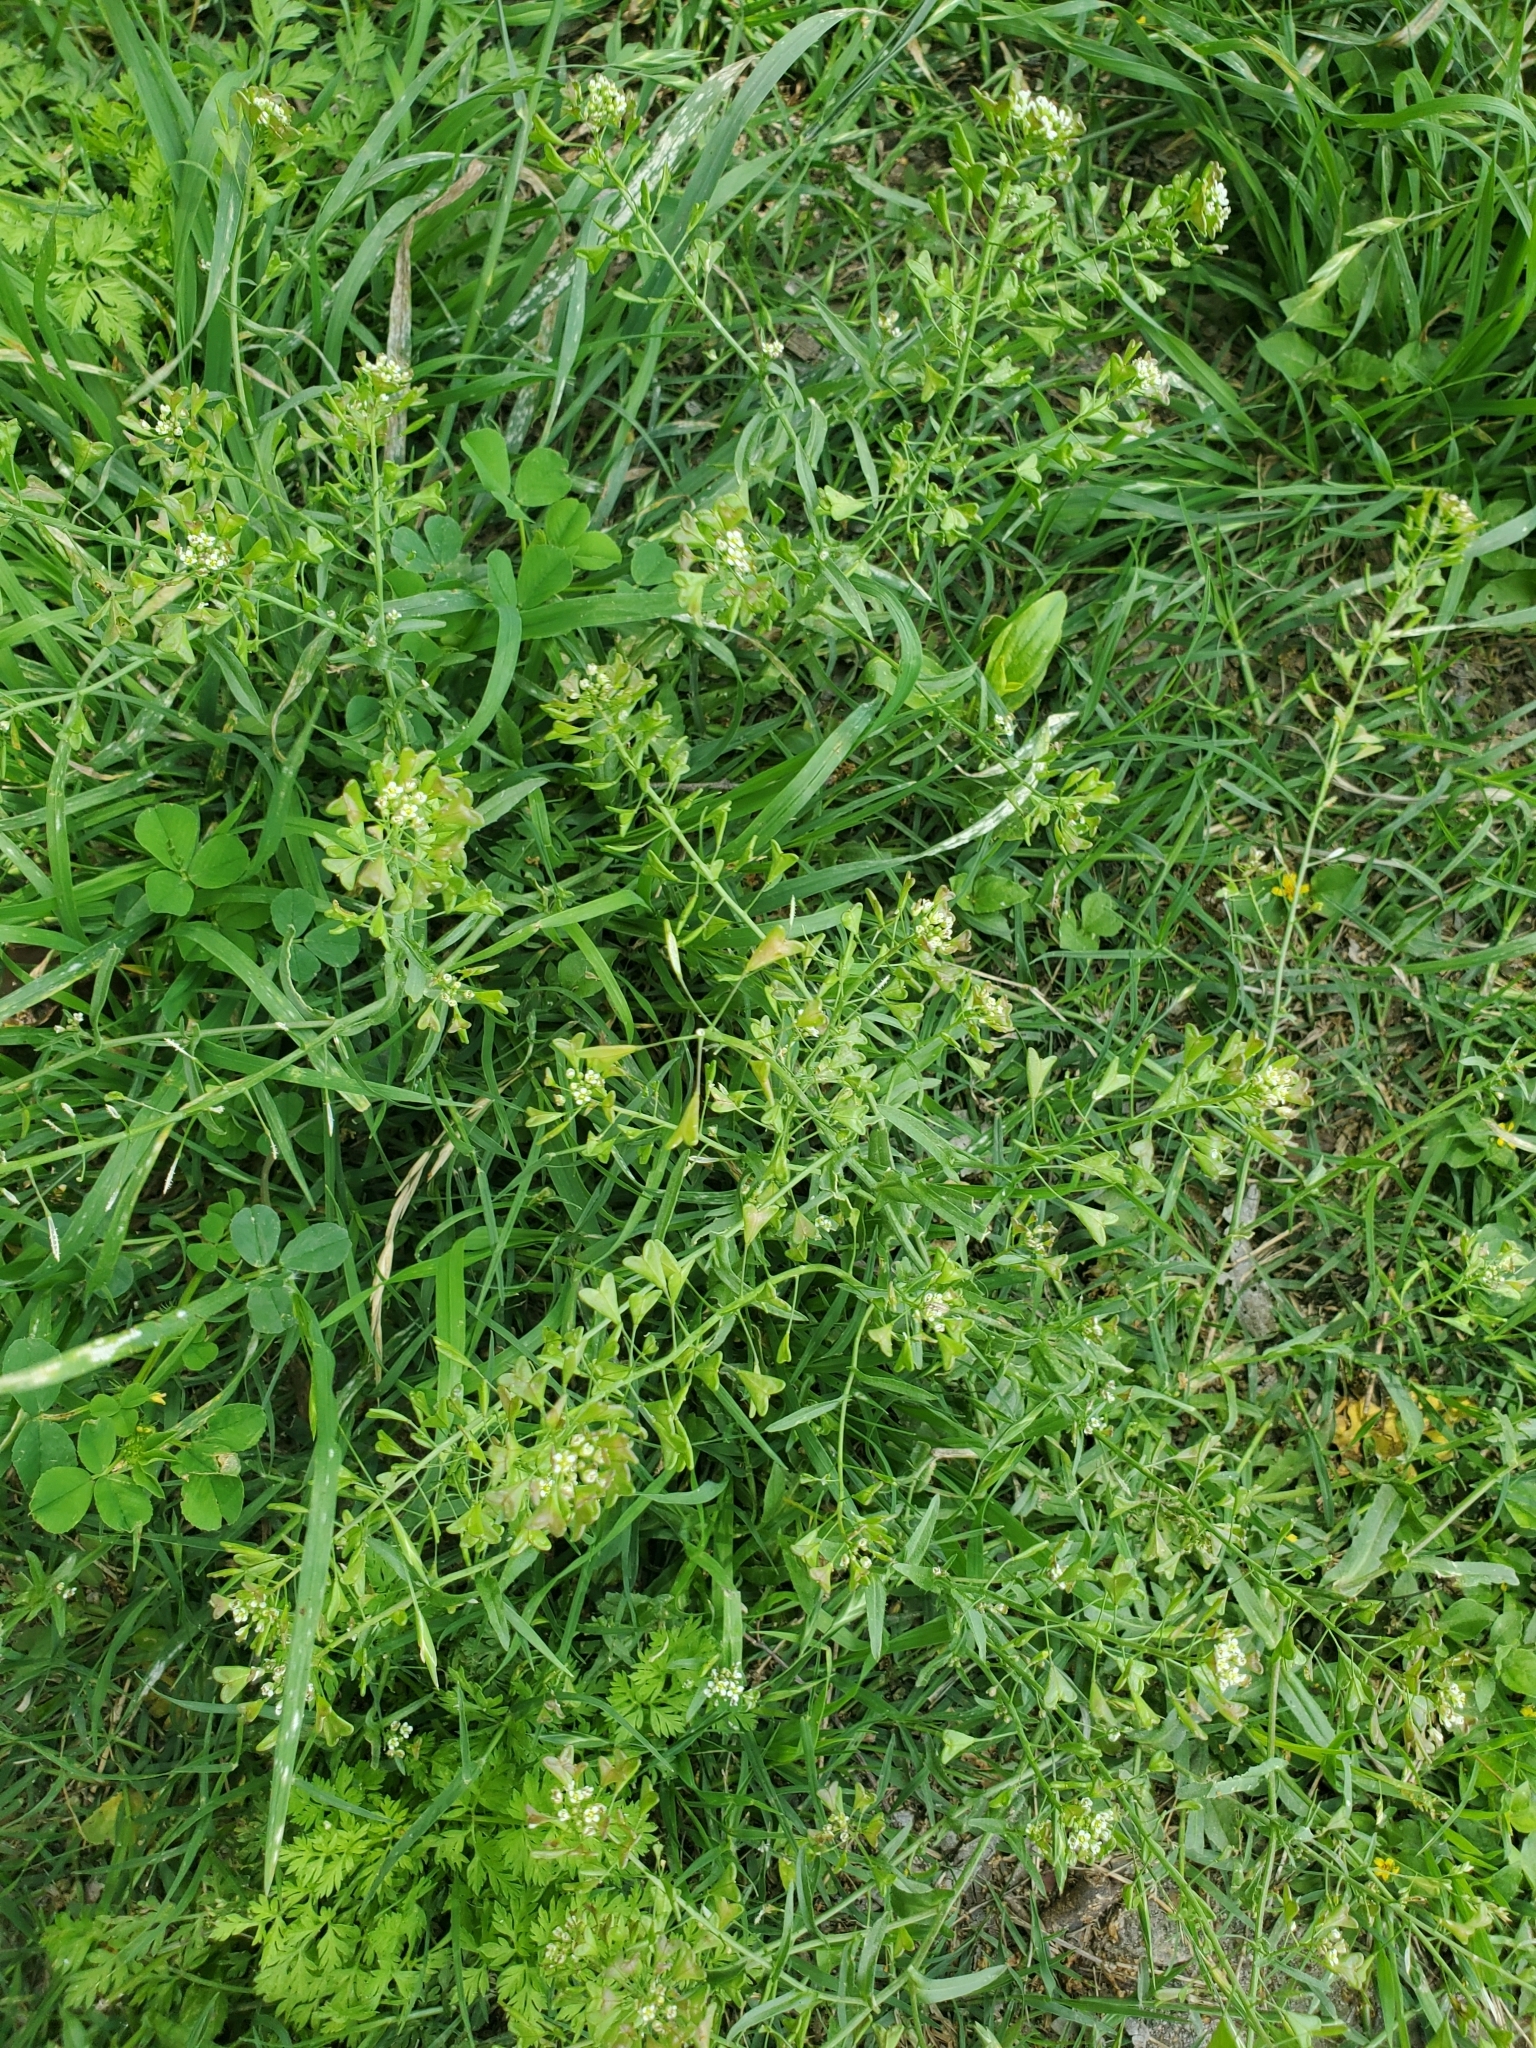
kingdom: Plantae
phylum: Tracheophyta
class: Magnoliopsida
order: Brassicales
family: Brassicaceae
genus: Capsella
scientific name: Capsella bursa-pastoris
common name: Shepherd's purse
